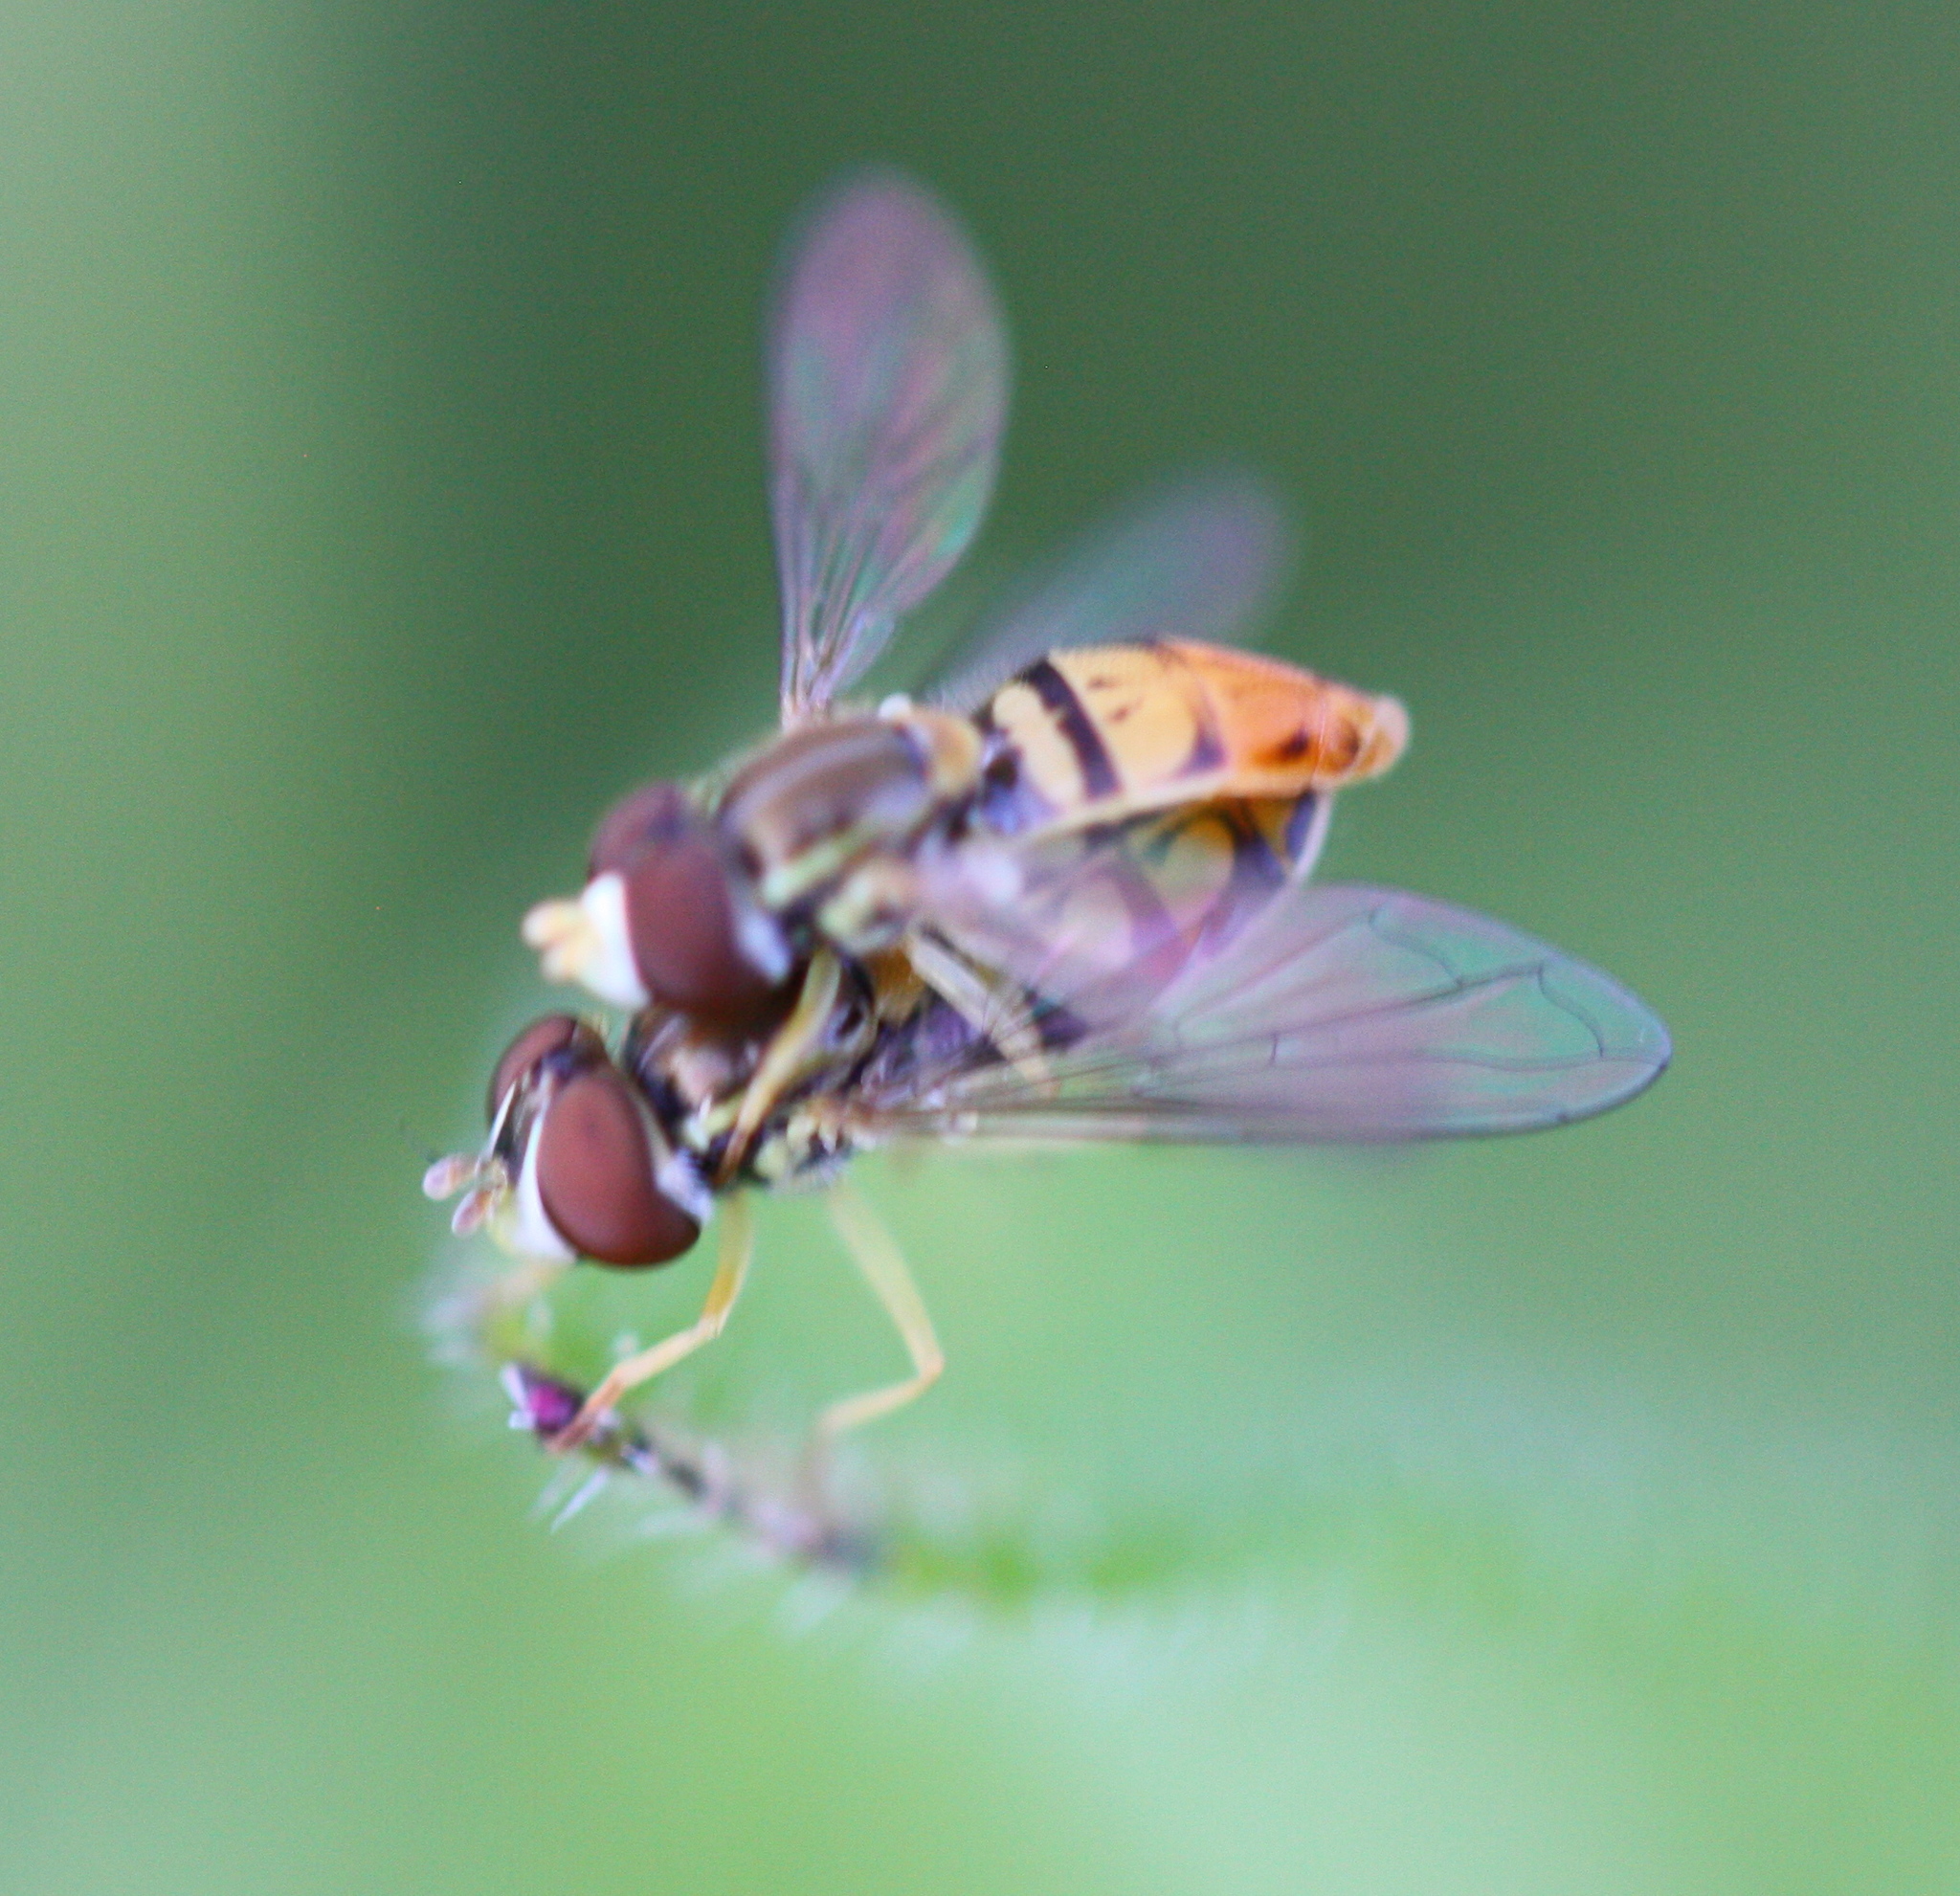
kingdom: Animalia
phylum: Arthropoda
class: Insecta
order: Diptera
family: Syrphidae
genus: Toxomerus
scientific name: Toxomerus marginatus
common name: Syrphid fly
